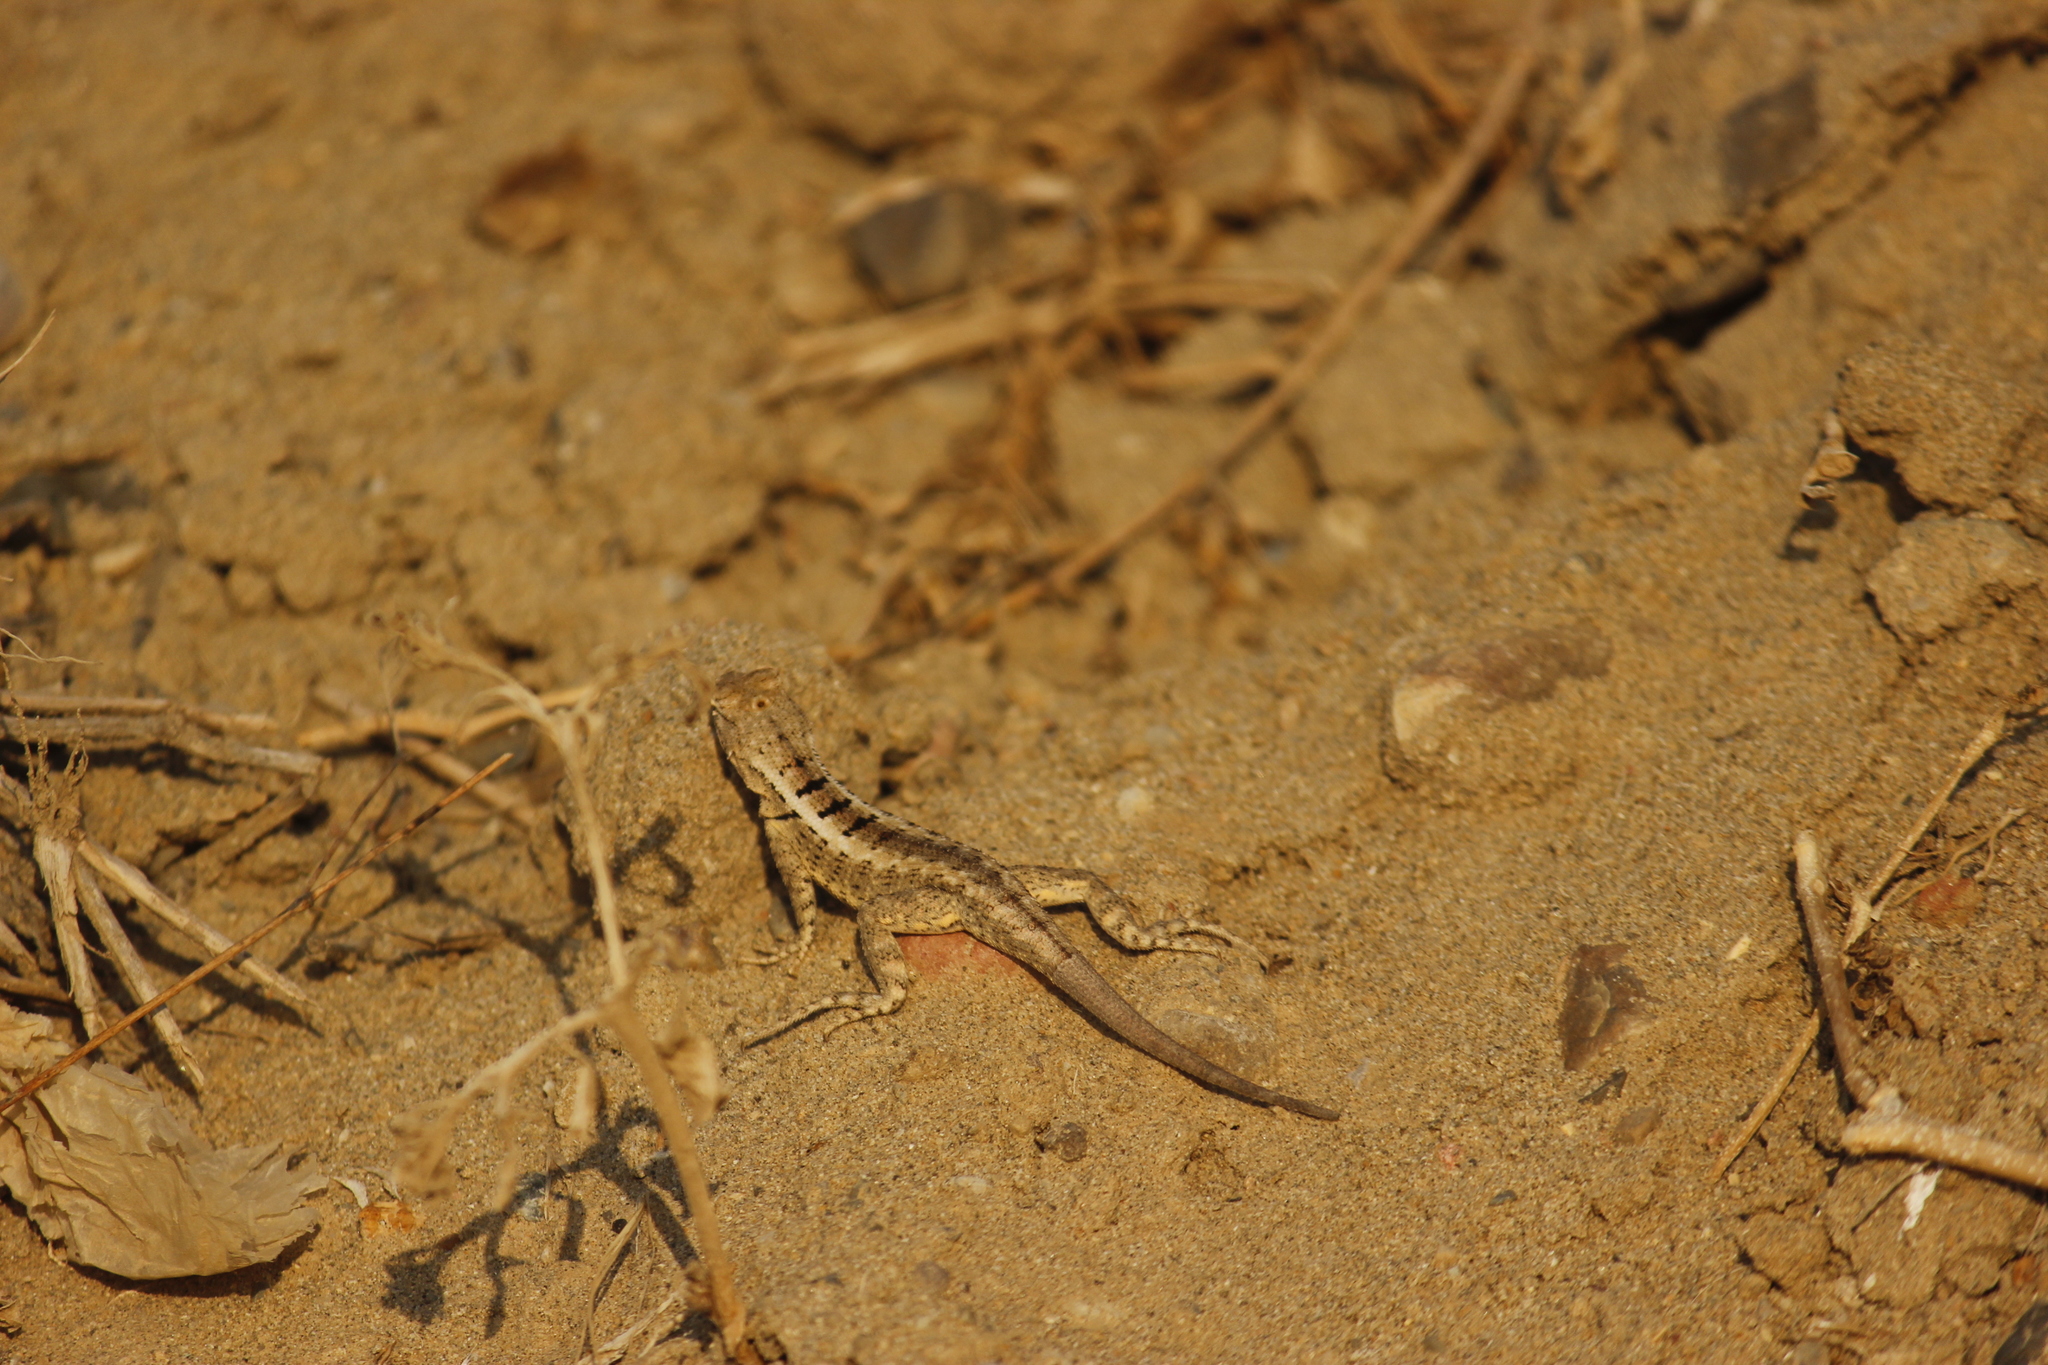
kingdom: Animalia
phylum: Chordata
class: Squamata
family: Tropiduridae
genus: Microlophus
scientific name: Microlophus occipitalis
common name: Knobbed pacific iguana
